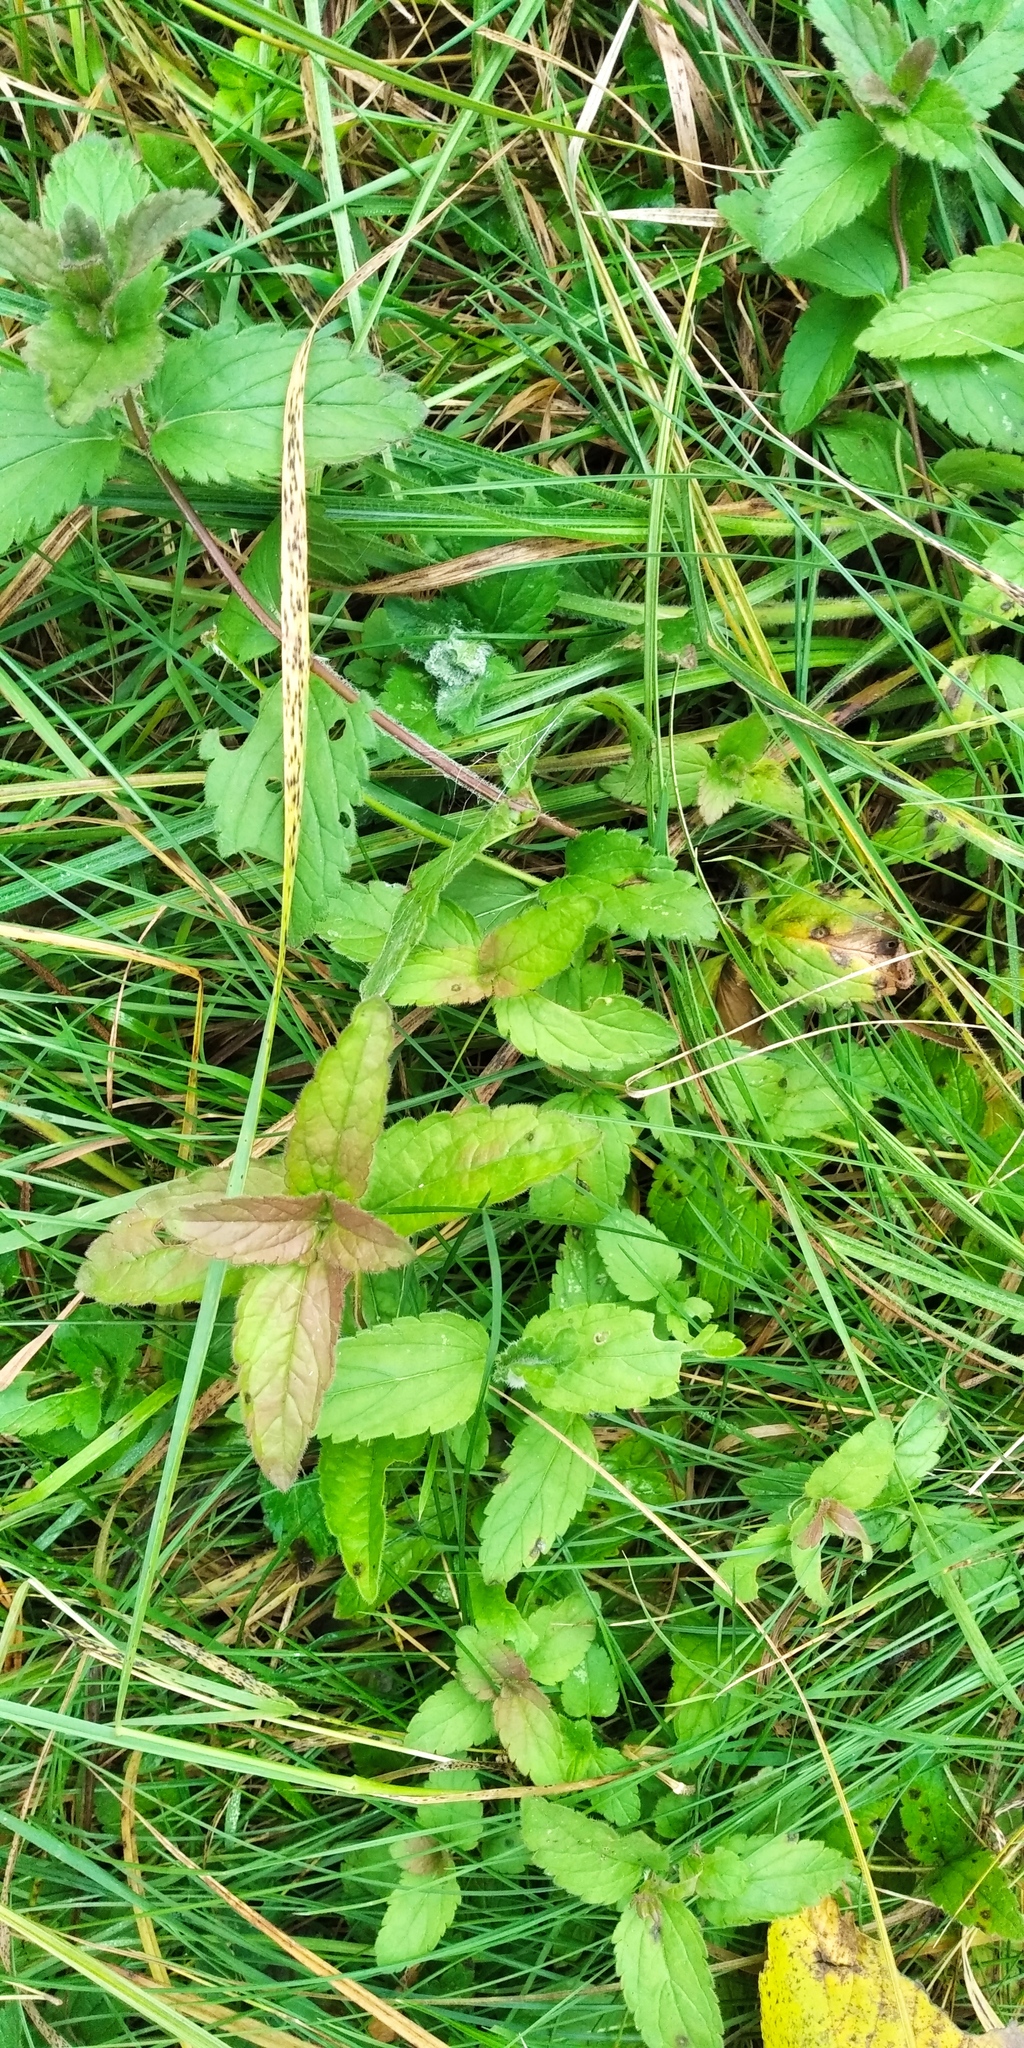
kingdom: Plantae
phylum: Tracheophyta
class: Magnoliopsida
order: Lamiales
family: Plantaginaceae
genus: Veronica
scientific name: Veronica chamaedrys
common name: Germander speedwell
